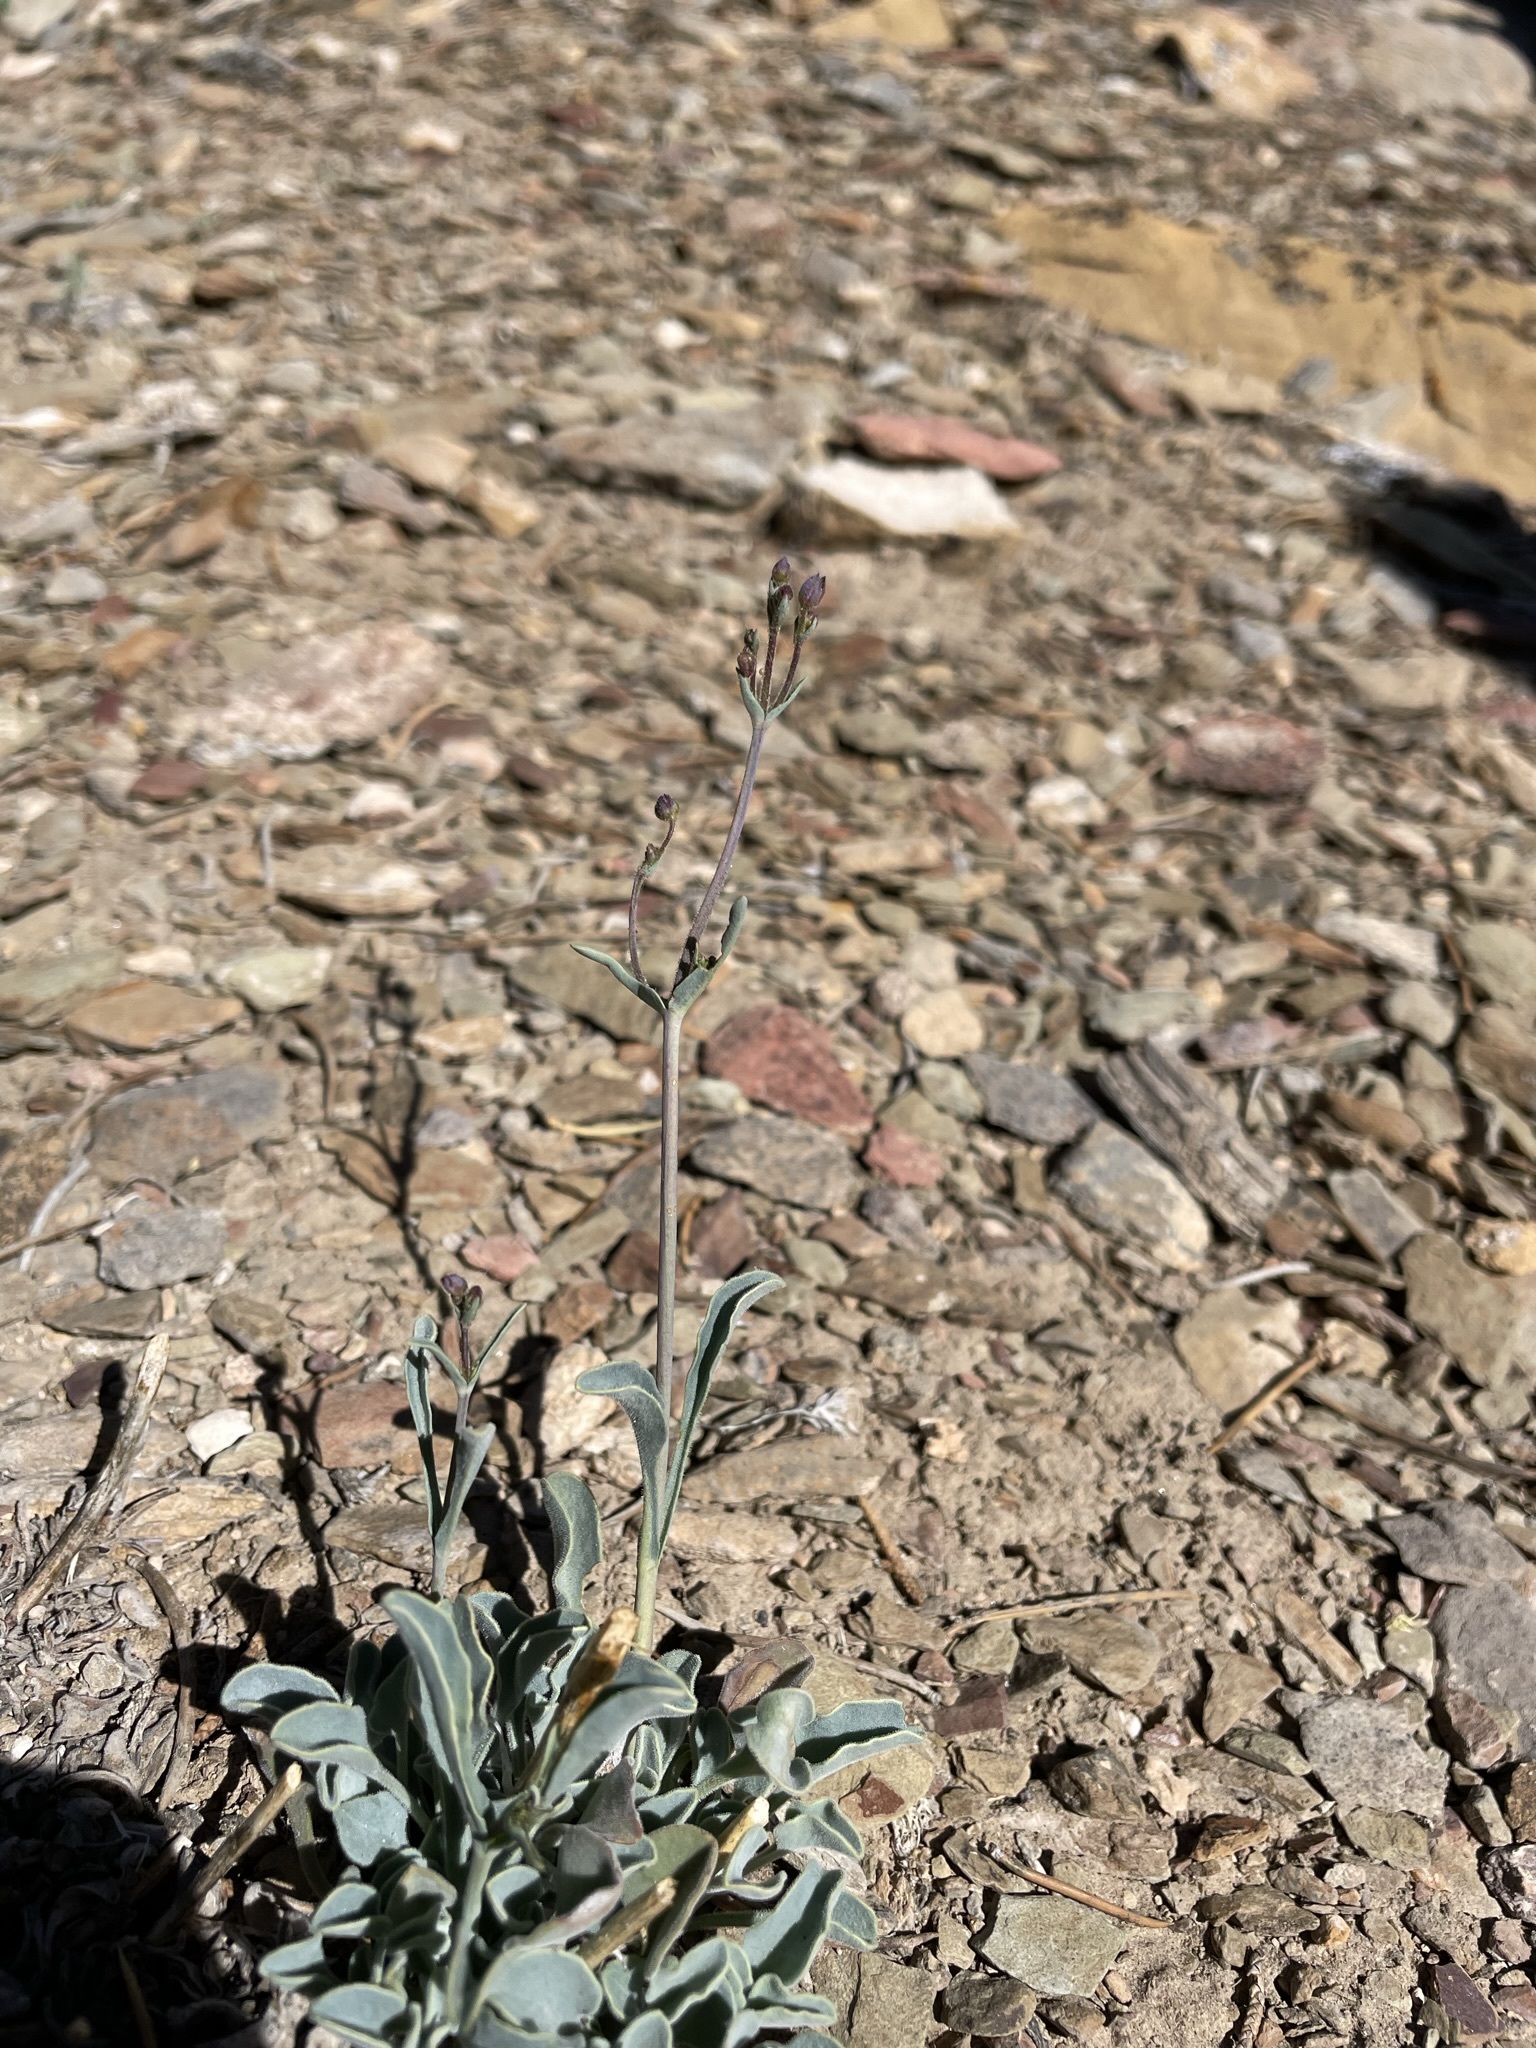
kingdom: Plantae
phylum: Tracheophyta
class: Magnoliopsida
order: Lamiales
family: Plantaginaceae
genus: Penstemon
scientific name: Penstemon scapoides
